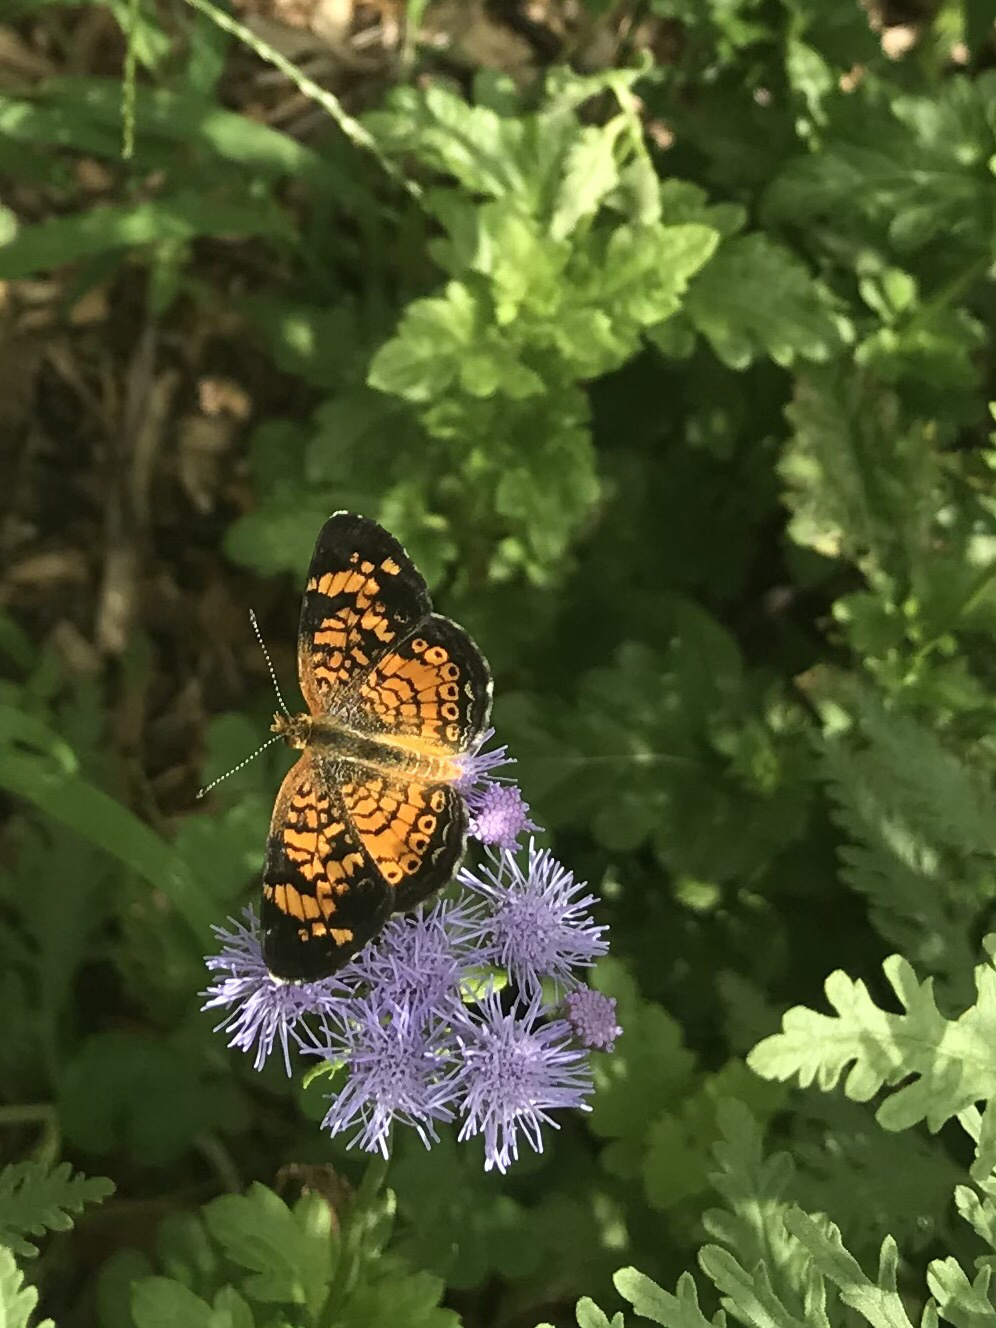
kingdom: Animalia
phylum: Arthropoda
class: Insecta
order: Lepidoptera
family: Nymphalidae
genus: Phyciodes
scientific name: Phyciodes tharos
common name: Pearl crescent
